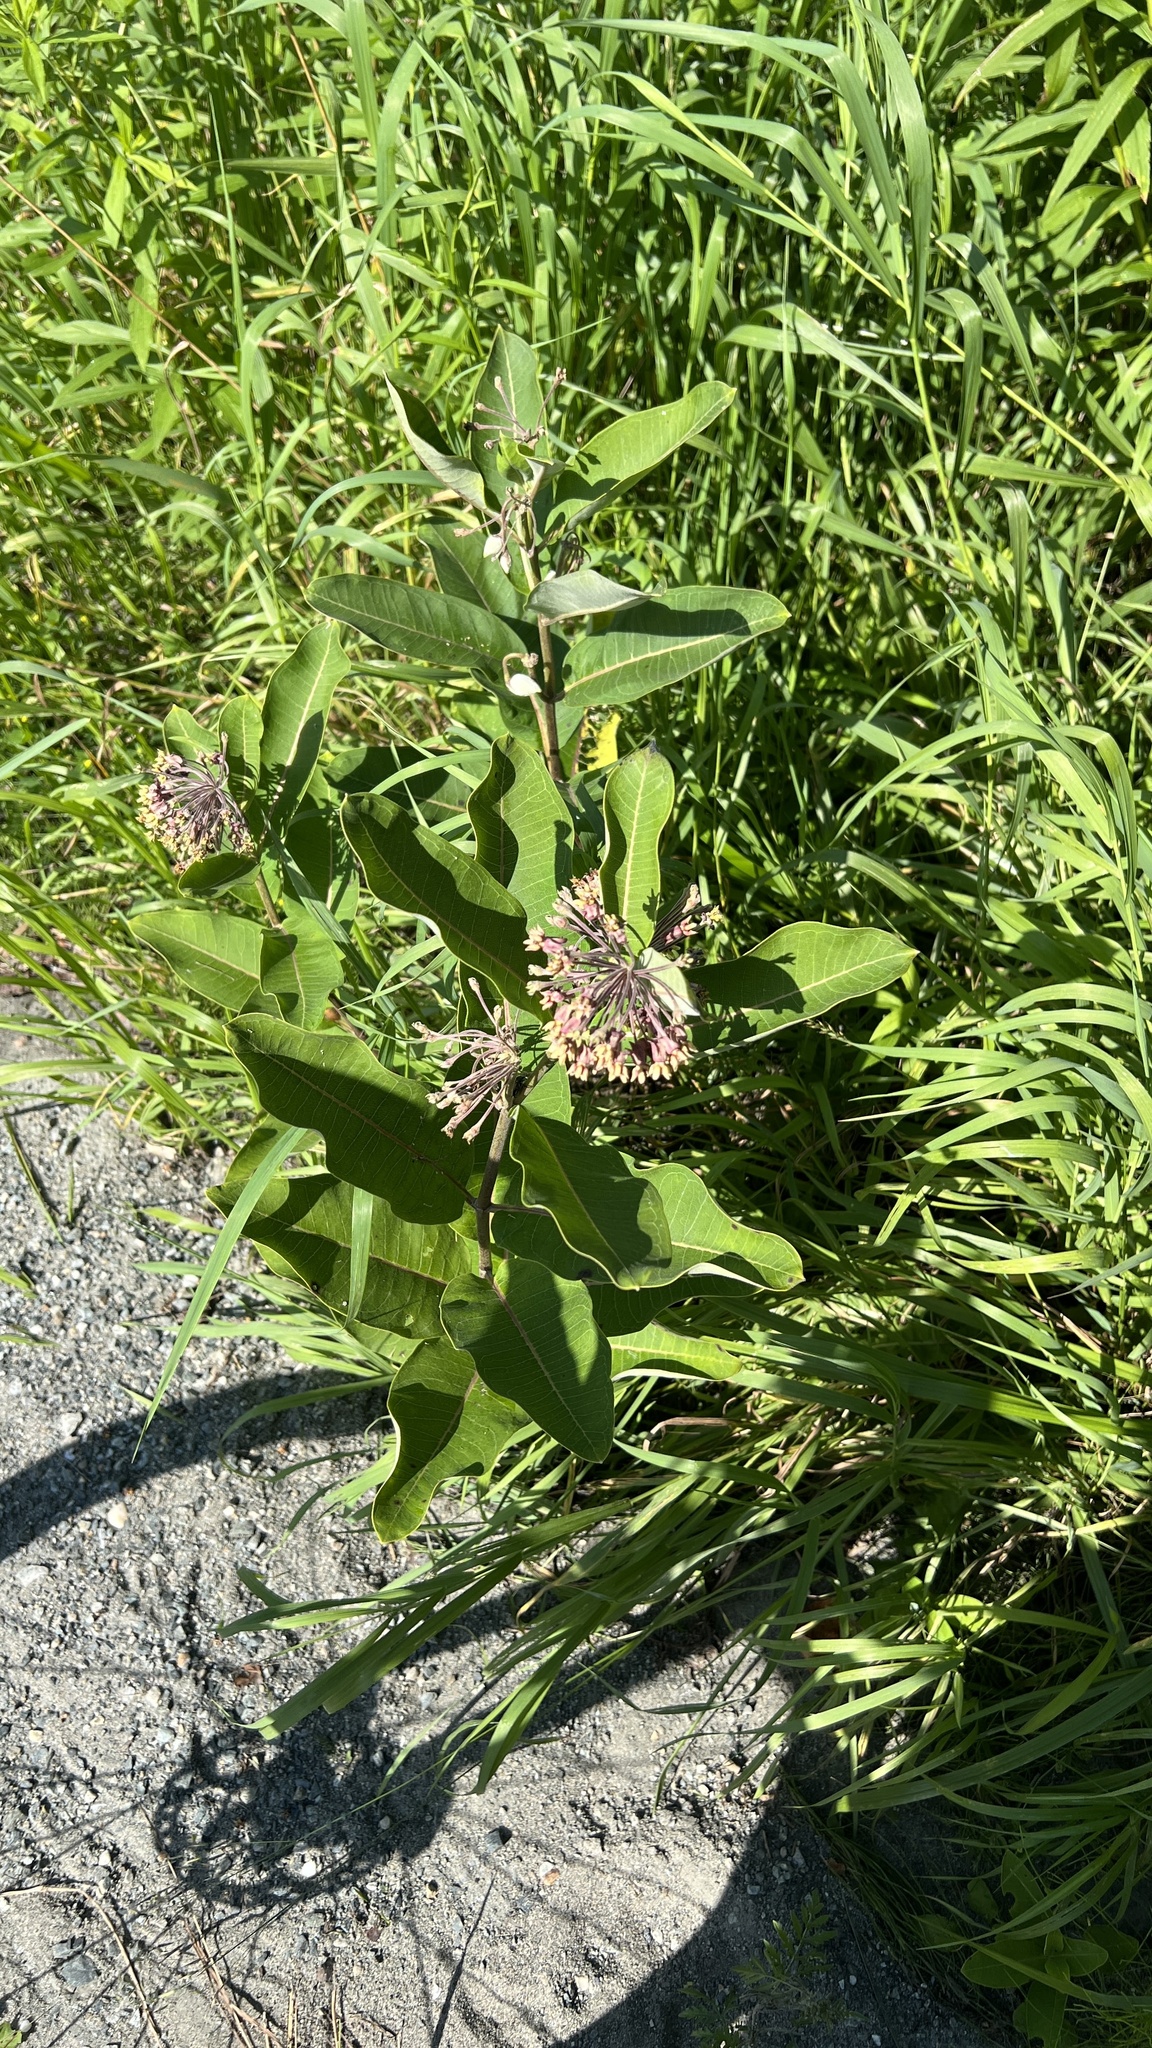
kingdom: Plantae
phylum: Tracheophyta
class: Magnoliopsida
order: Gentianales
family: Apocynaceae
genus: Asclepias
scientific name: Asclepias syriaca
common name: Common milkweed
